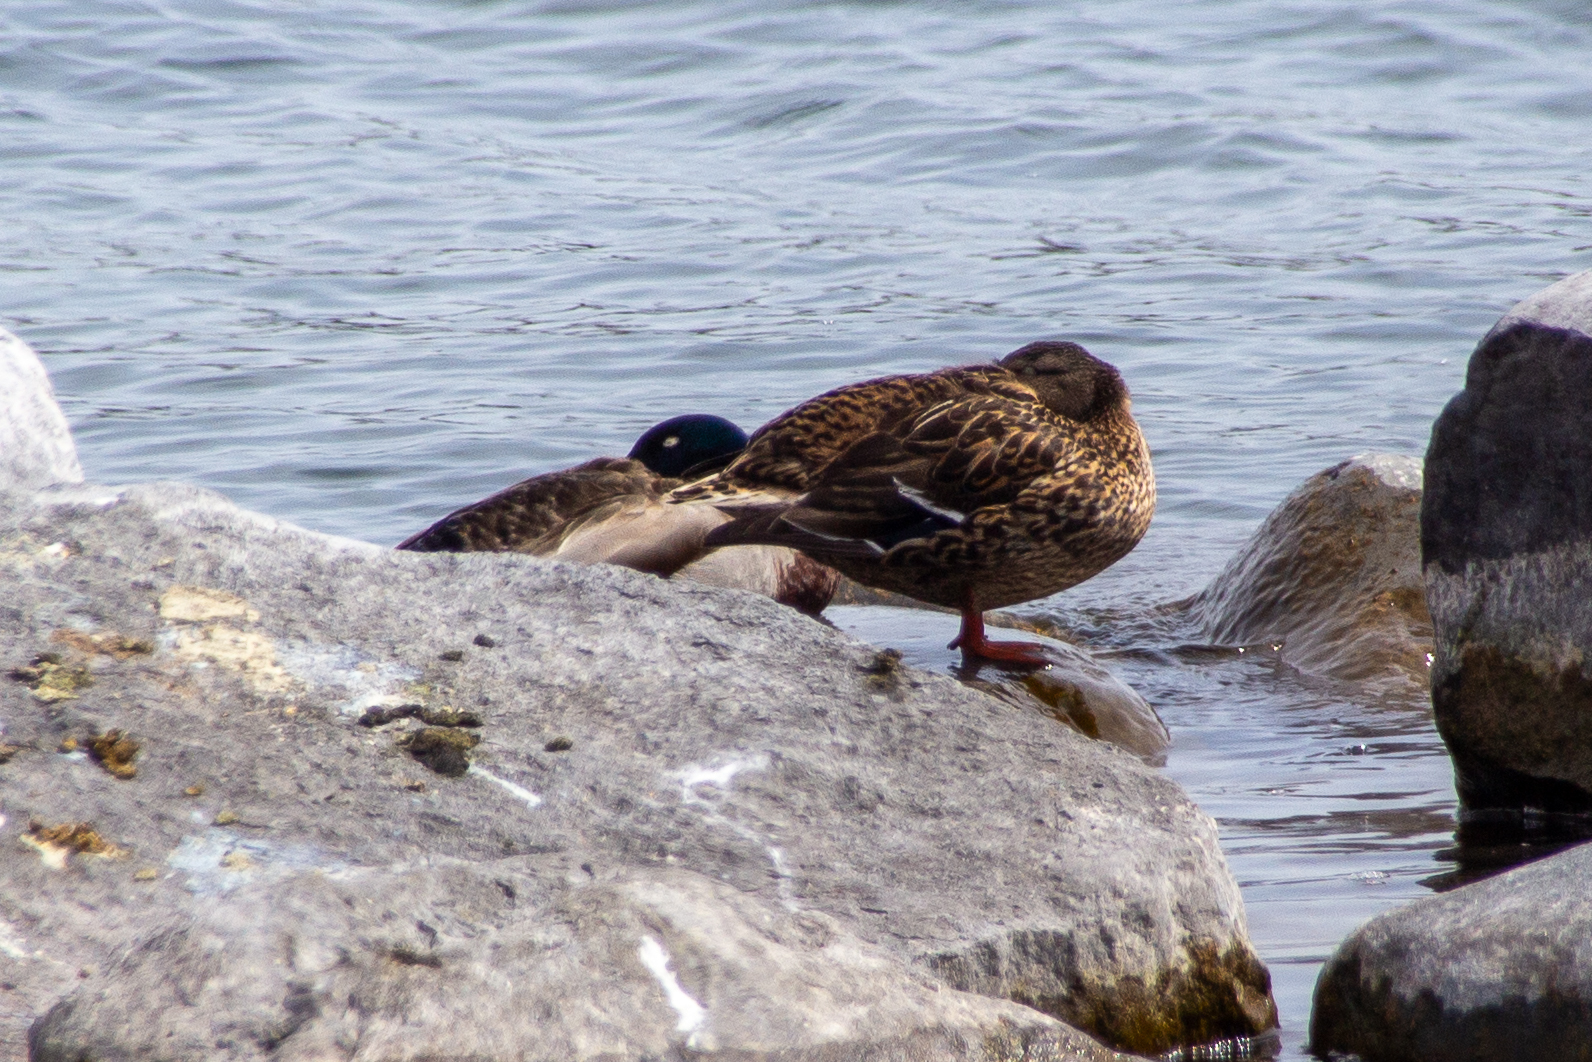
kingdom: Animalia
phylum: Chordata
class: Aves
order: Anseriformes
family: Anatidae
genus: Anas
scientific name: Anas platyrhynchos
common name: Mallard
